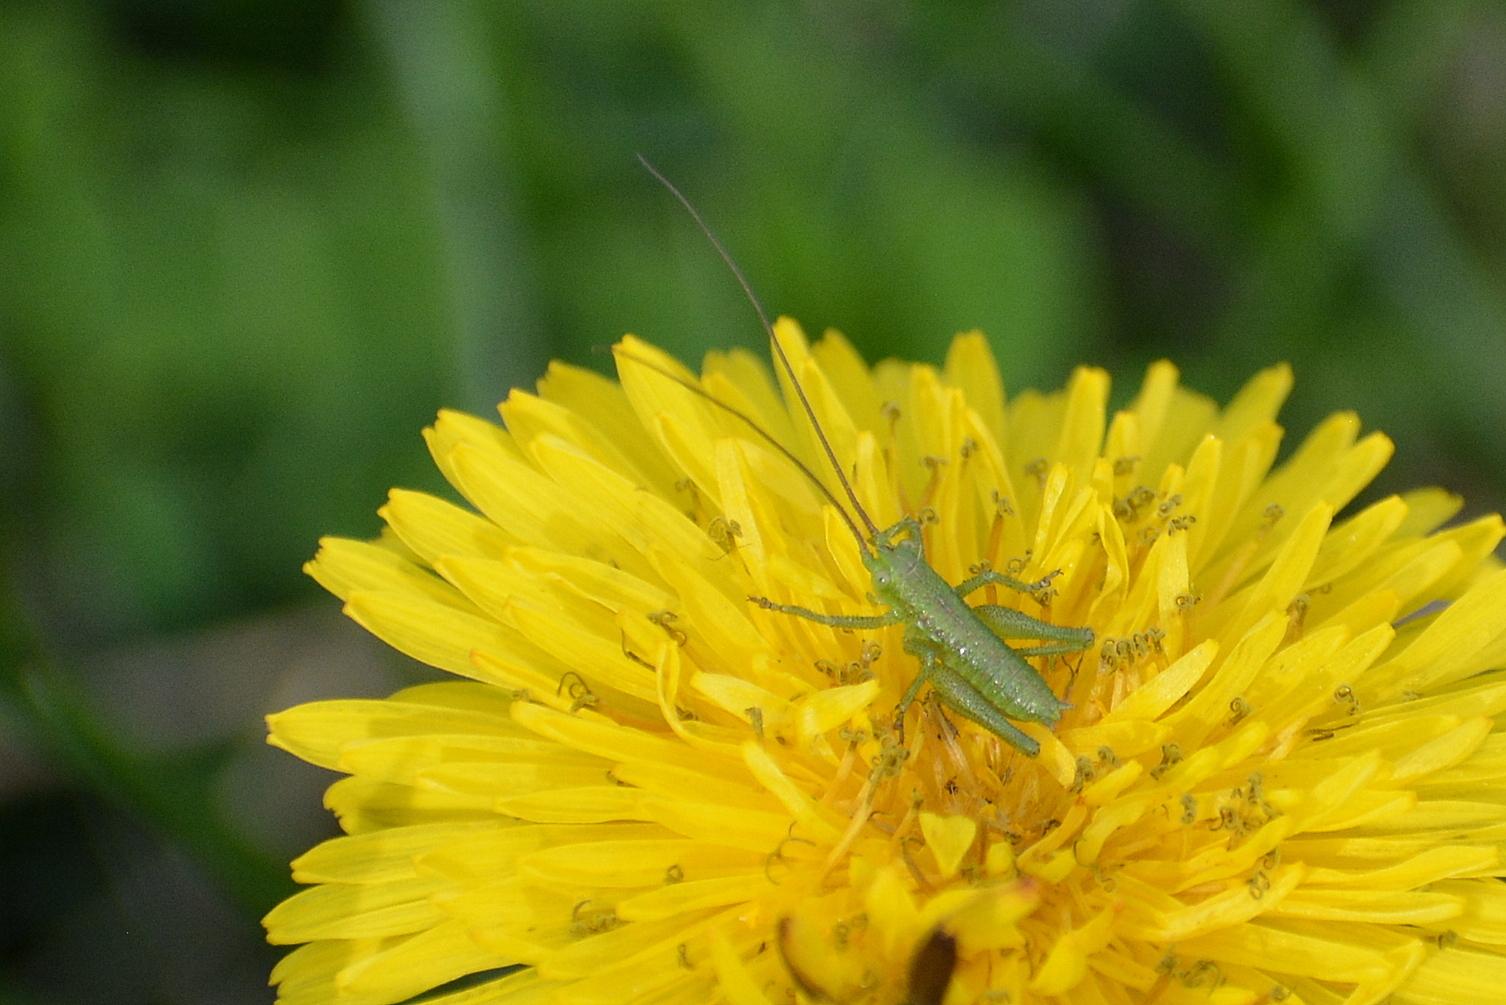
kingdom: Animalia
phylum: Arthropoda
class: Insecta
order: Orthoptera
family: Tettigoniidae
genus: Tettigonia
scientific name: Tettigonia viridissima
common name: Great green bush-cricket
